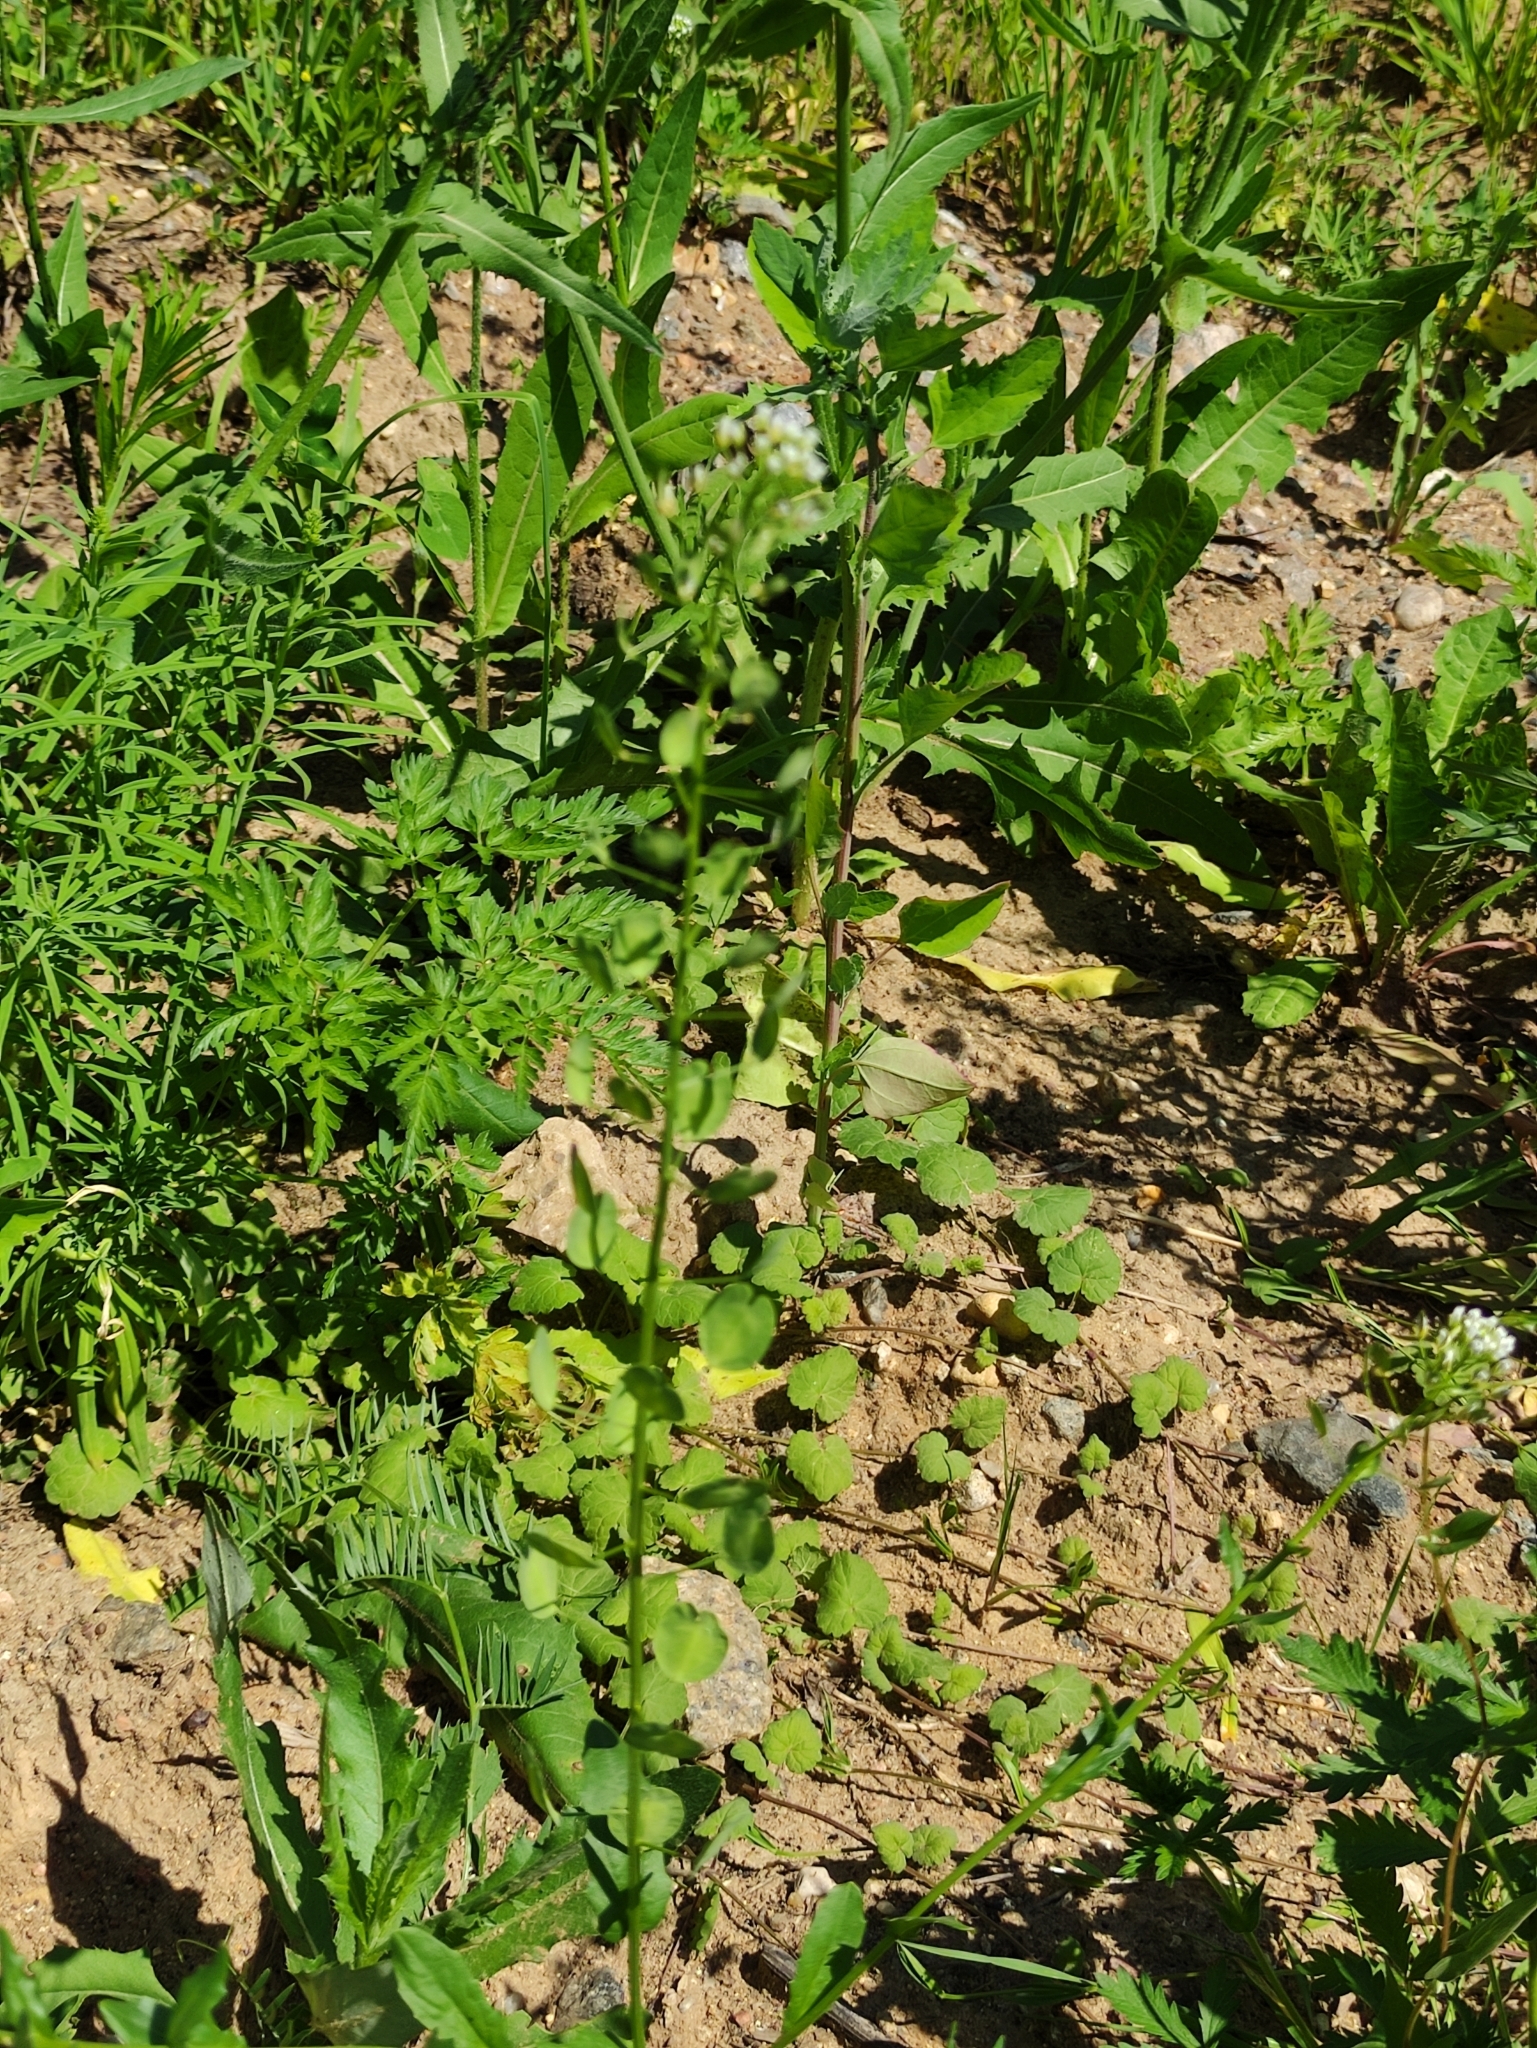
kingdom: Plantae
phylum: Tracheophyta
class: Magnoliopsida
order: Brassicales
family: Brassicaceae
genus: Thlaspi
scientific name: Thlaspi arvense
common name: Field pennycress
